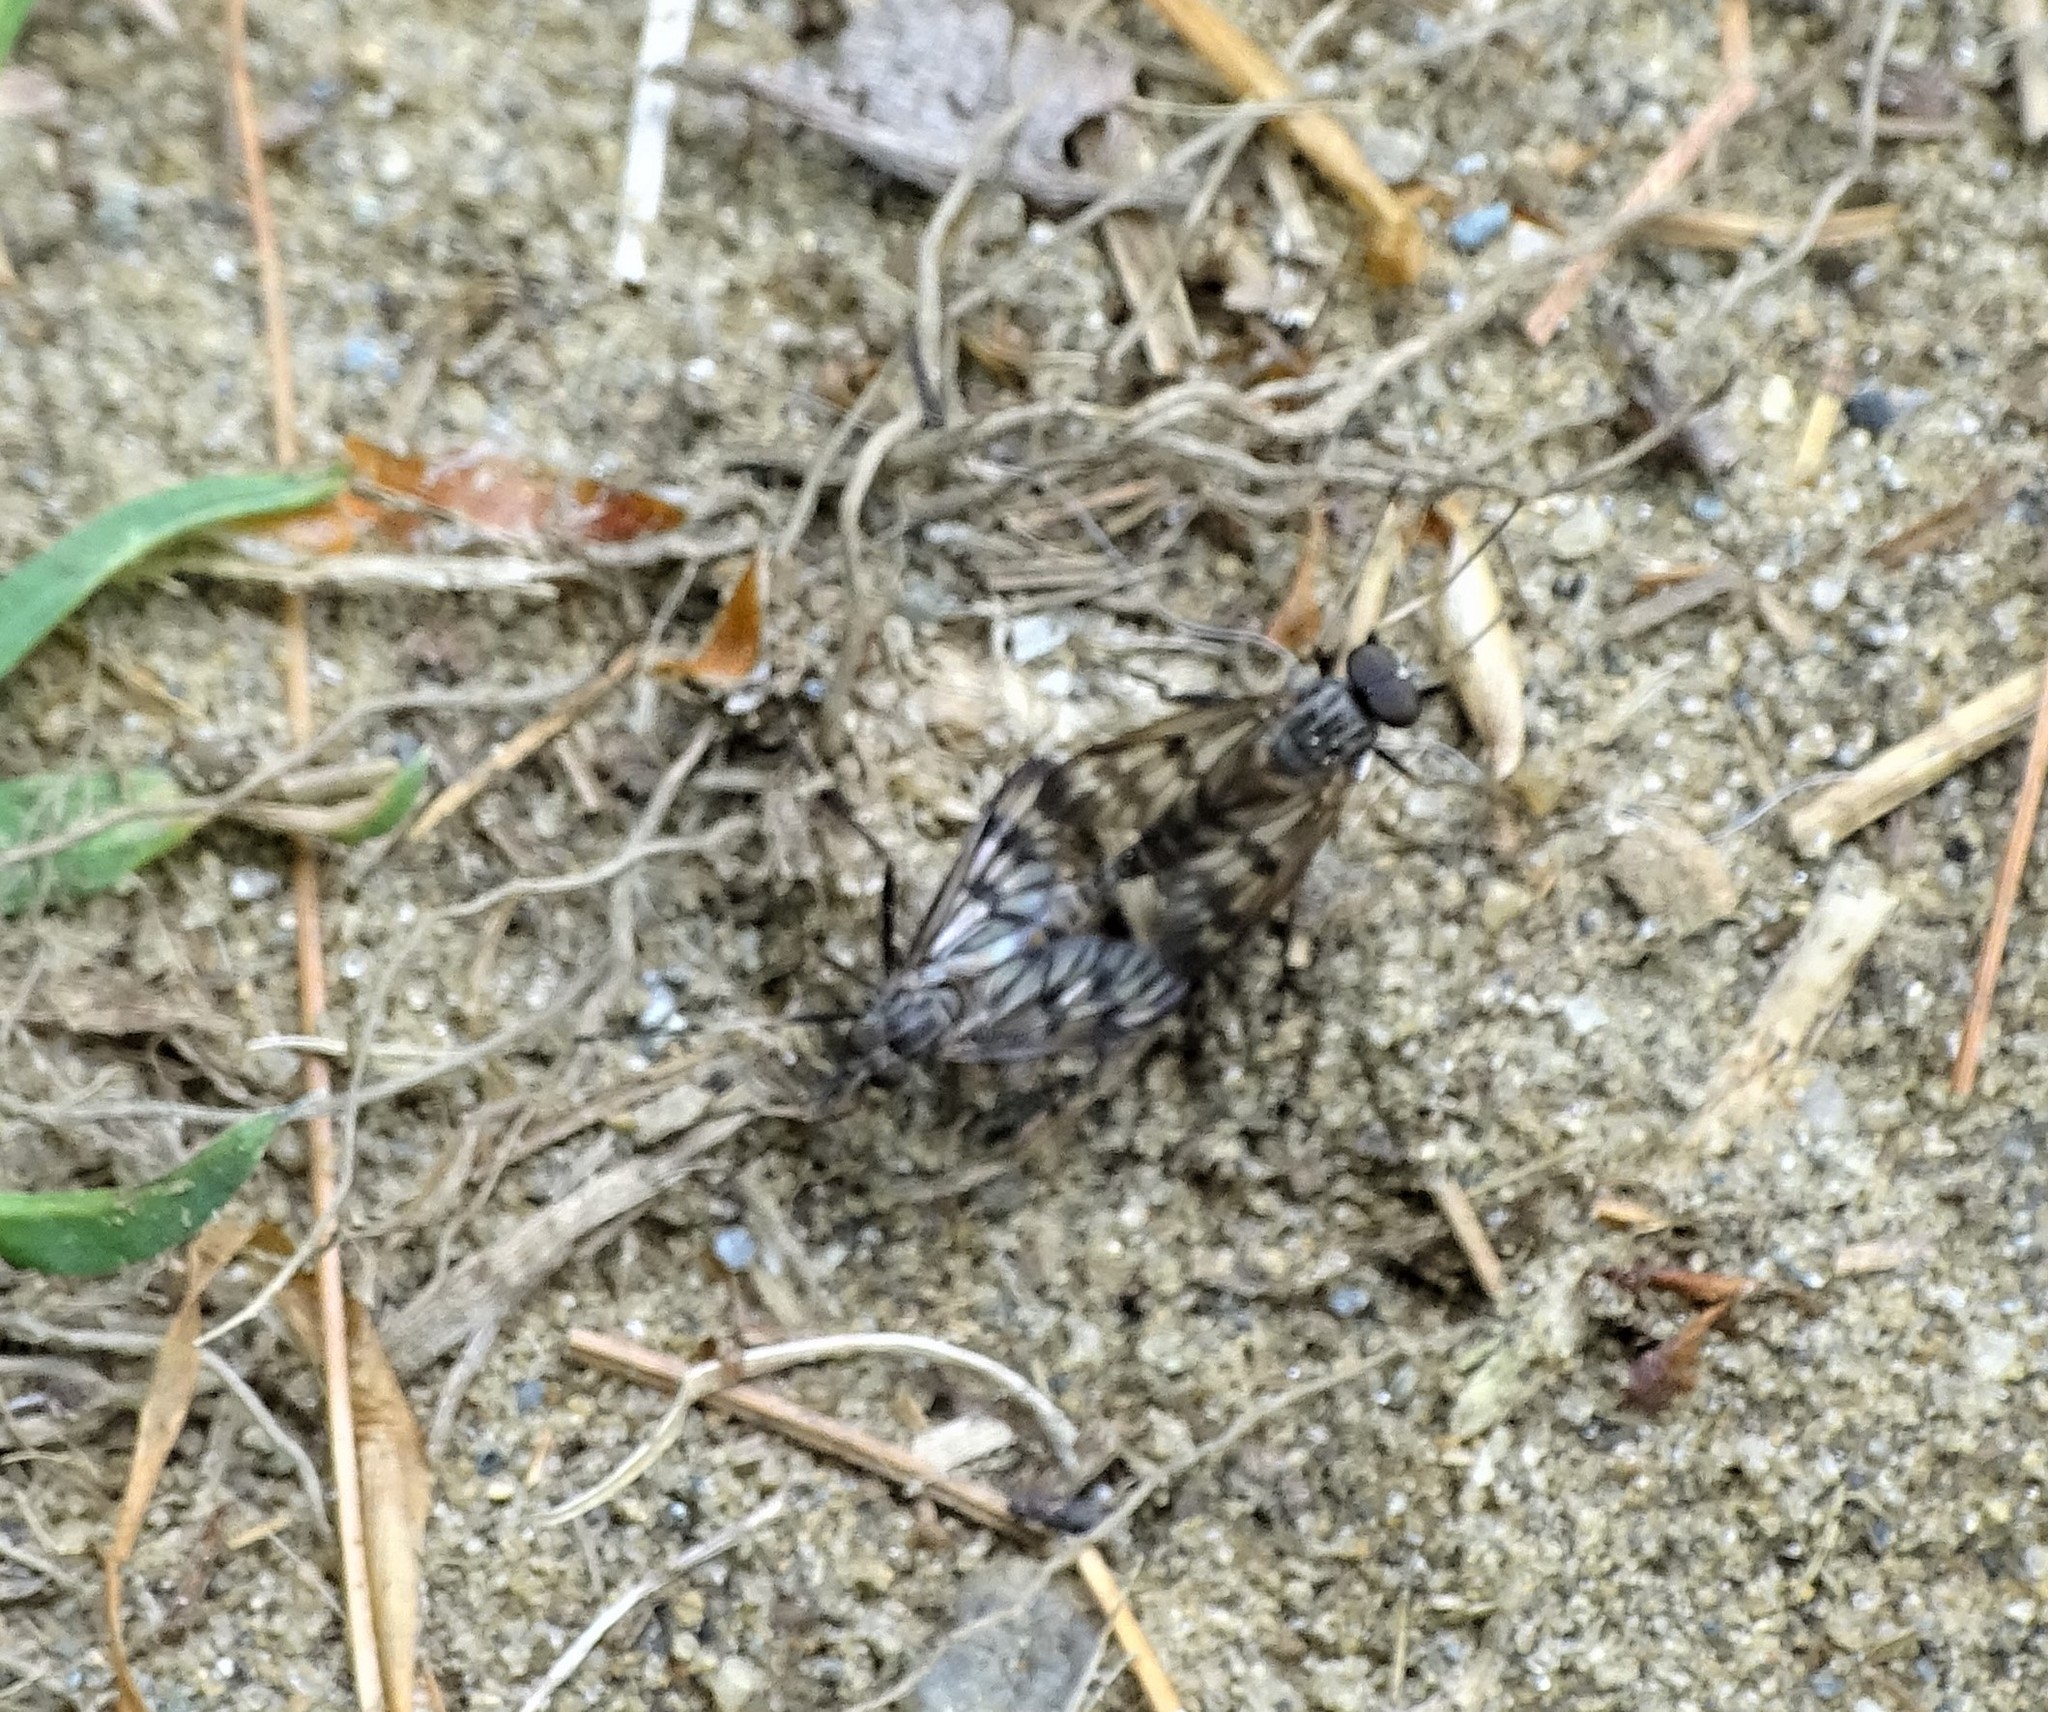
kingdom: Animalia
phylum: Arthropoda
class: Insecta
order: Diptera
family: Rhagionidae
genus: Rhagio
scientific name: Rhagio mystaceus
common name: Common snipe fly
